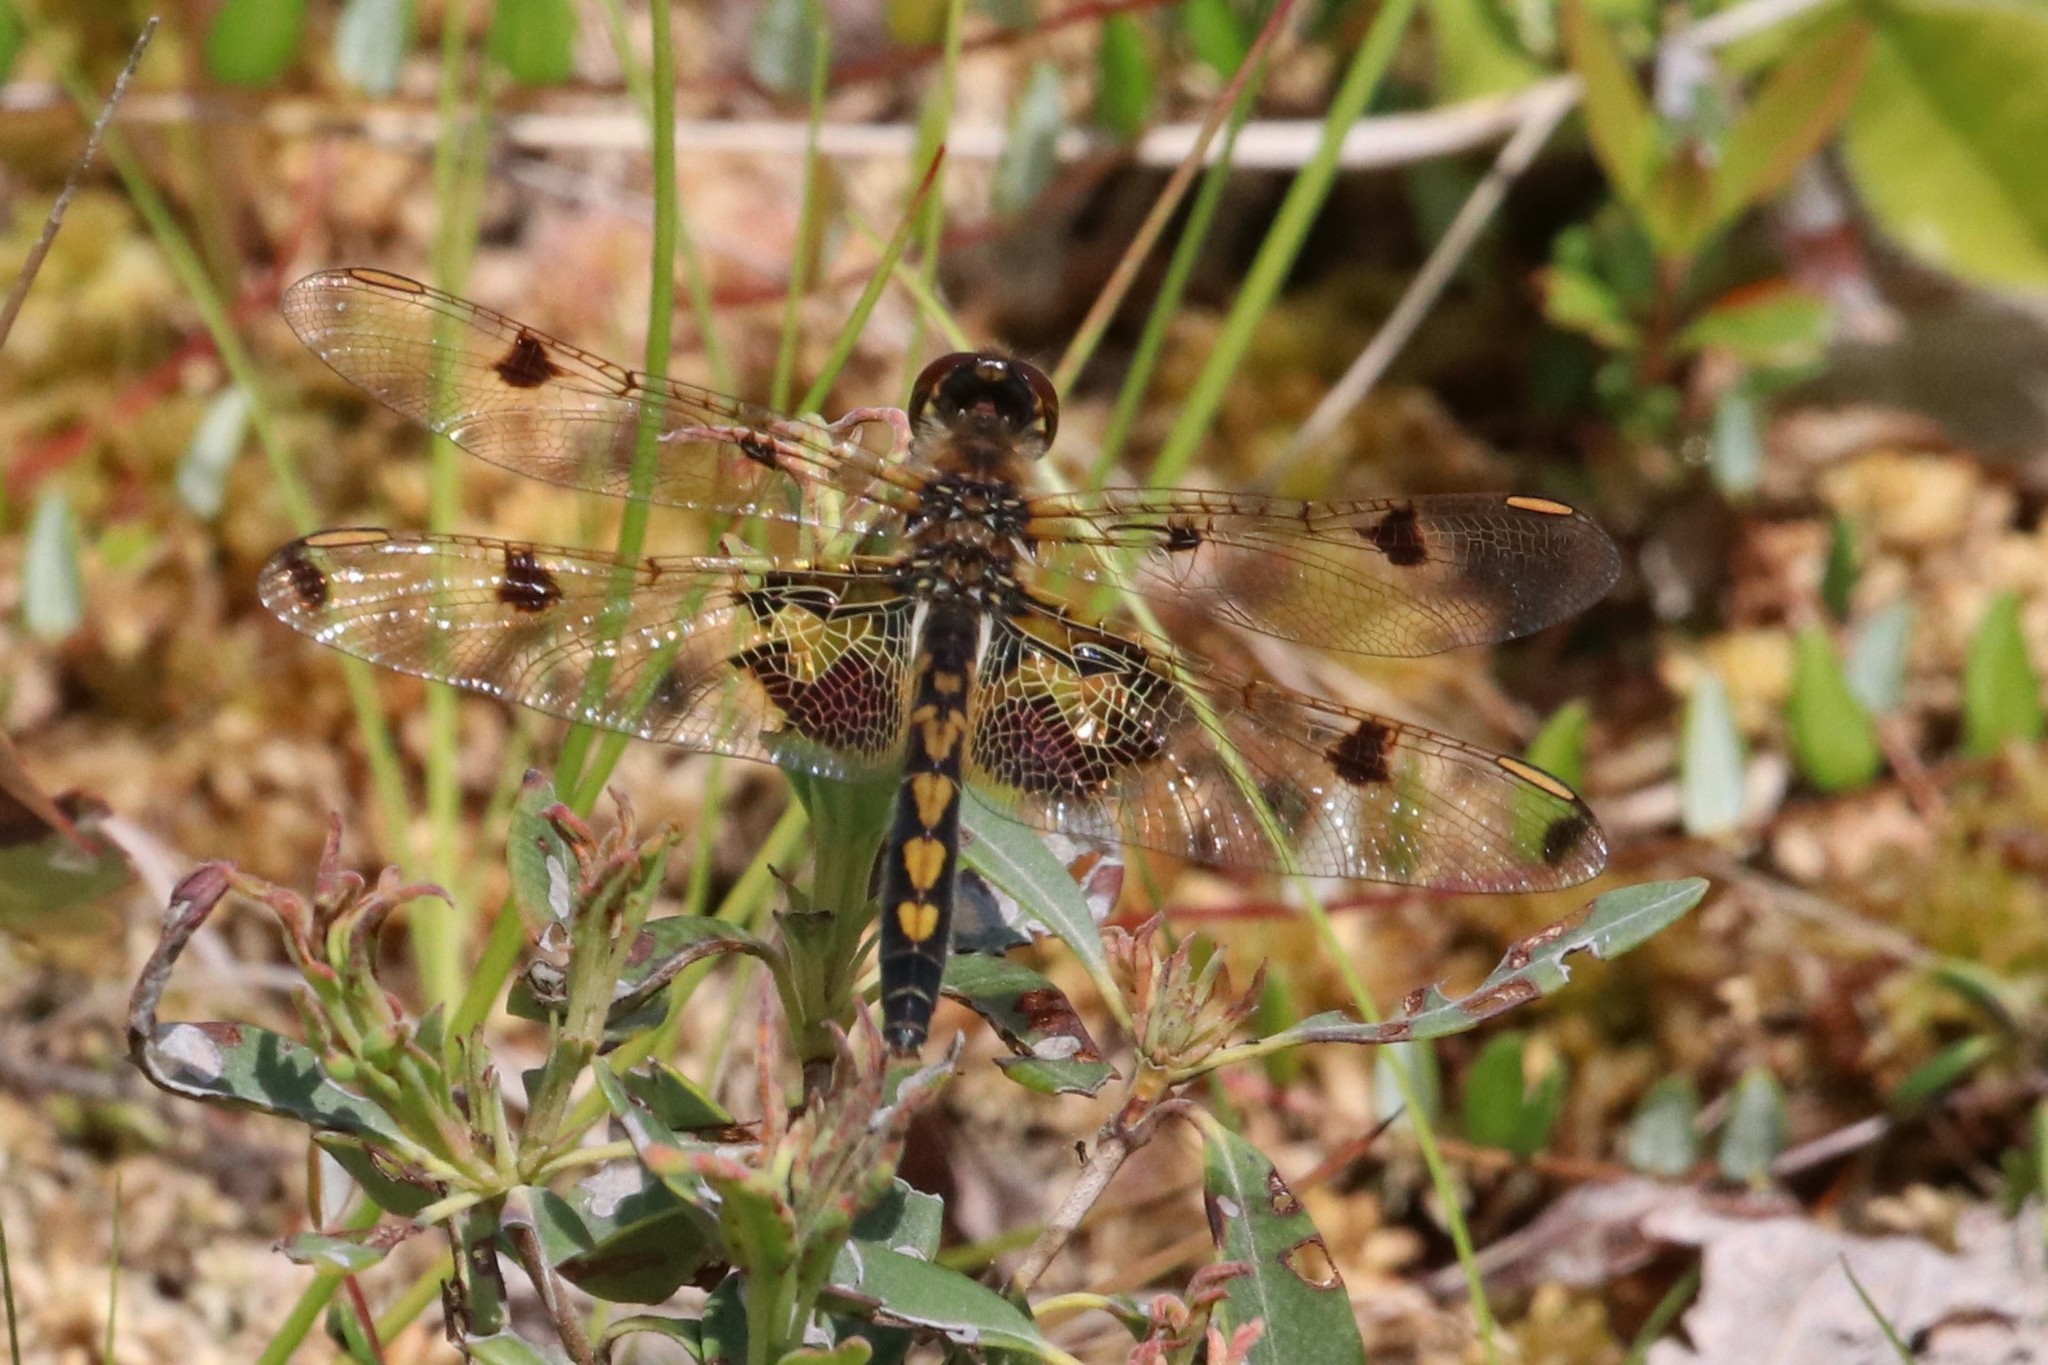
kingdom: Animalia
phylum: Arthropoda
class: Insecta
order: Odonata
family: Libellulidae
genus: Celithemis
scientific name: Celithemis elisa
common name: Calico pennant
